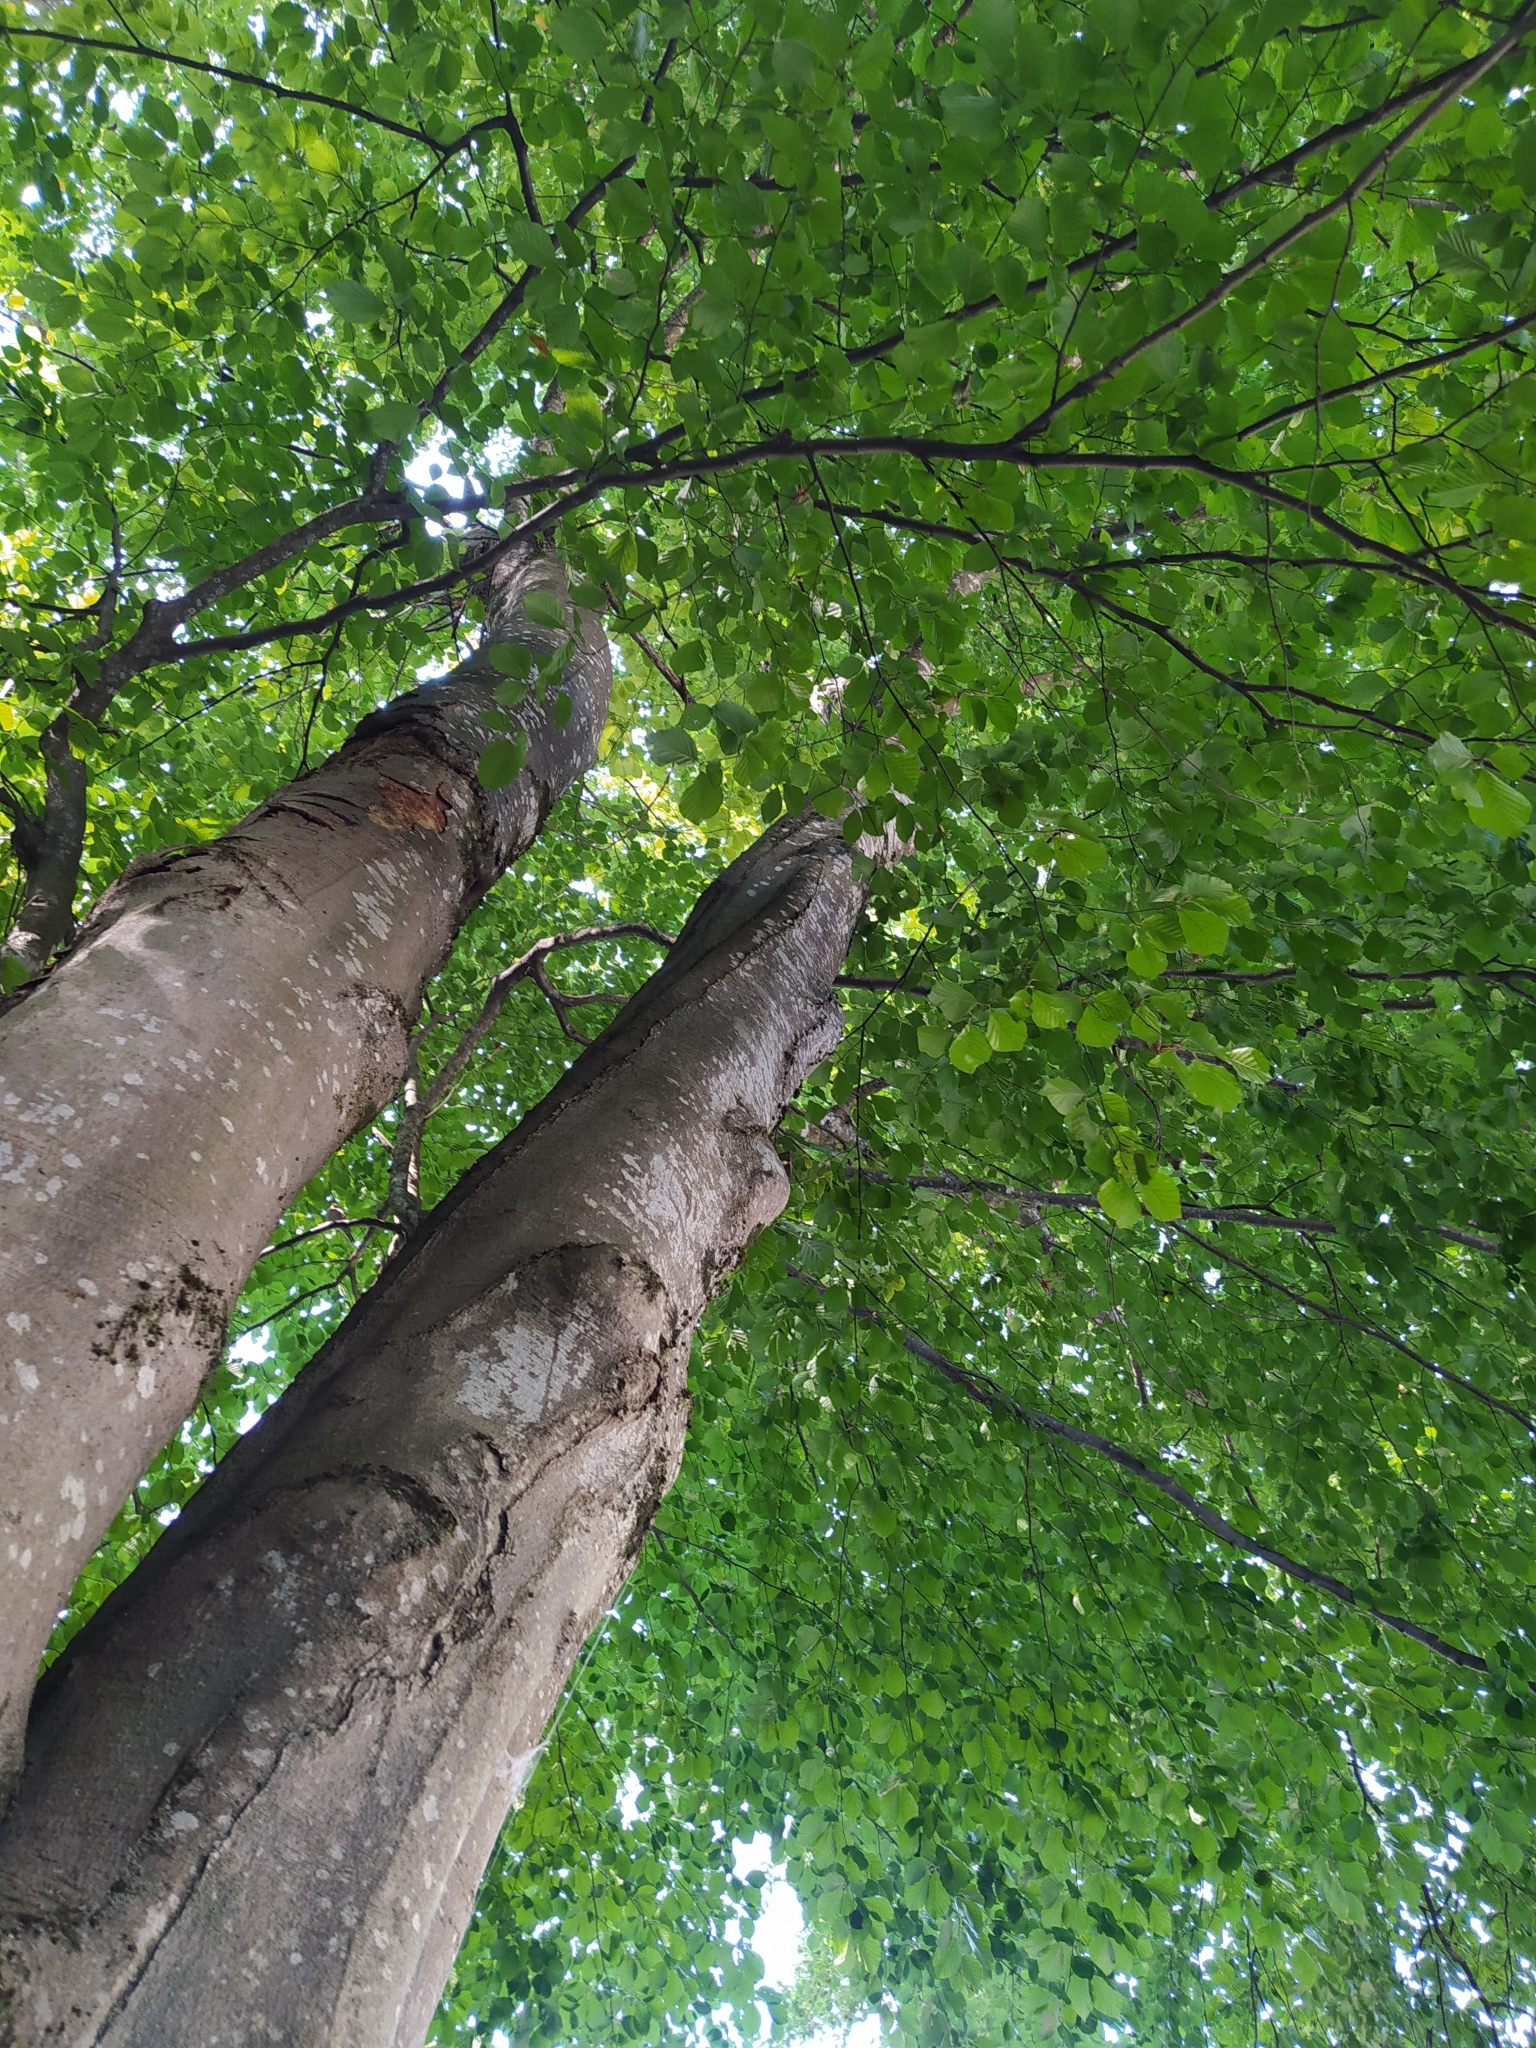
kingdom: Plantae
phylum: Tracheophyta
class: Magnoliopsida
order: Fagales
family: Fagaceae
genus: Fagus
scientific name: Fagus sylvatica
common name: Beech
